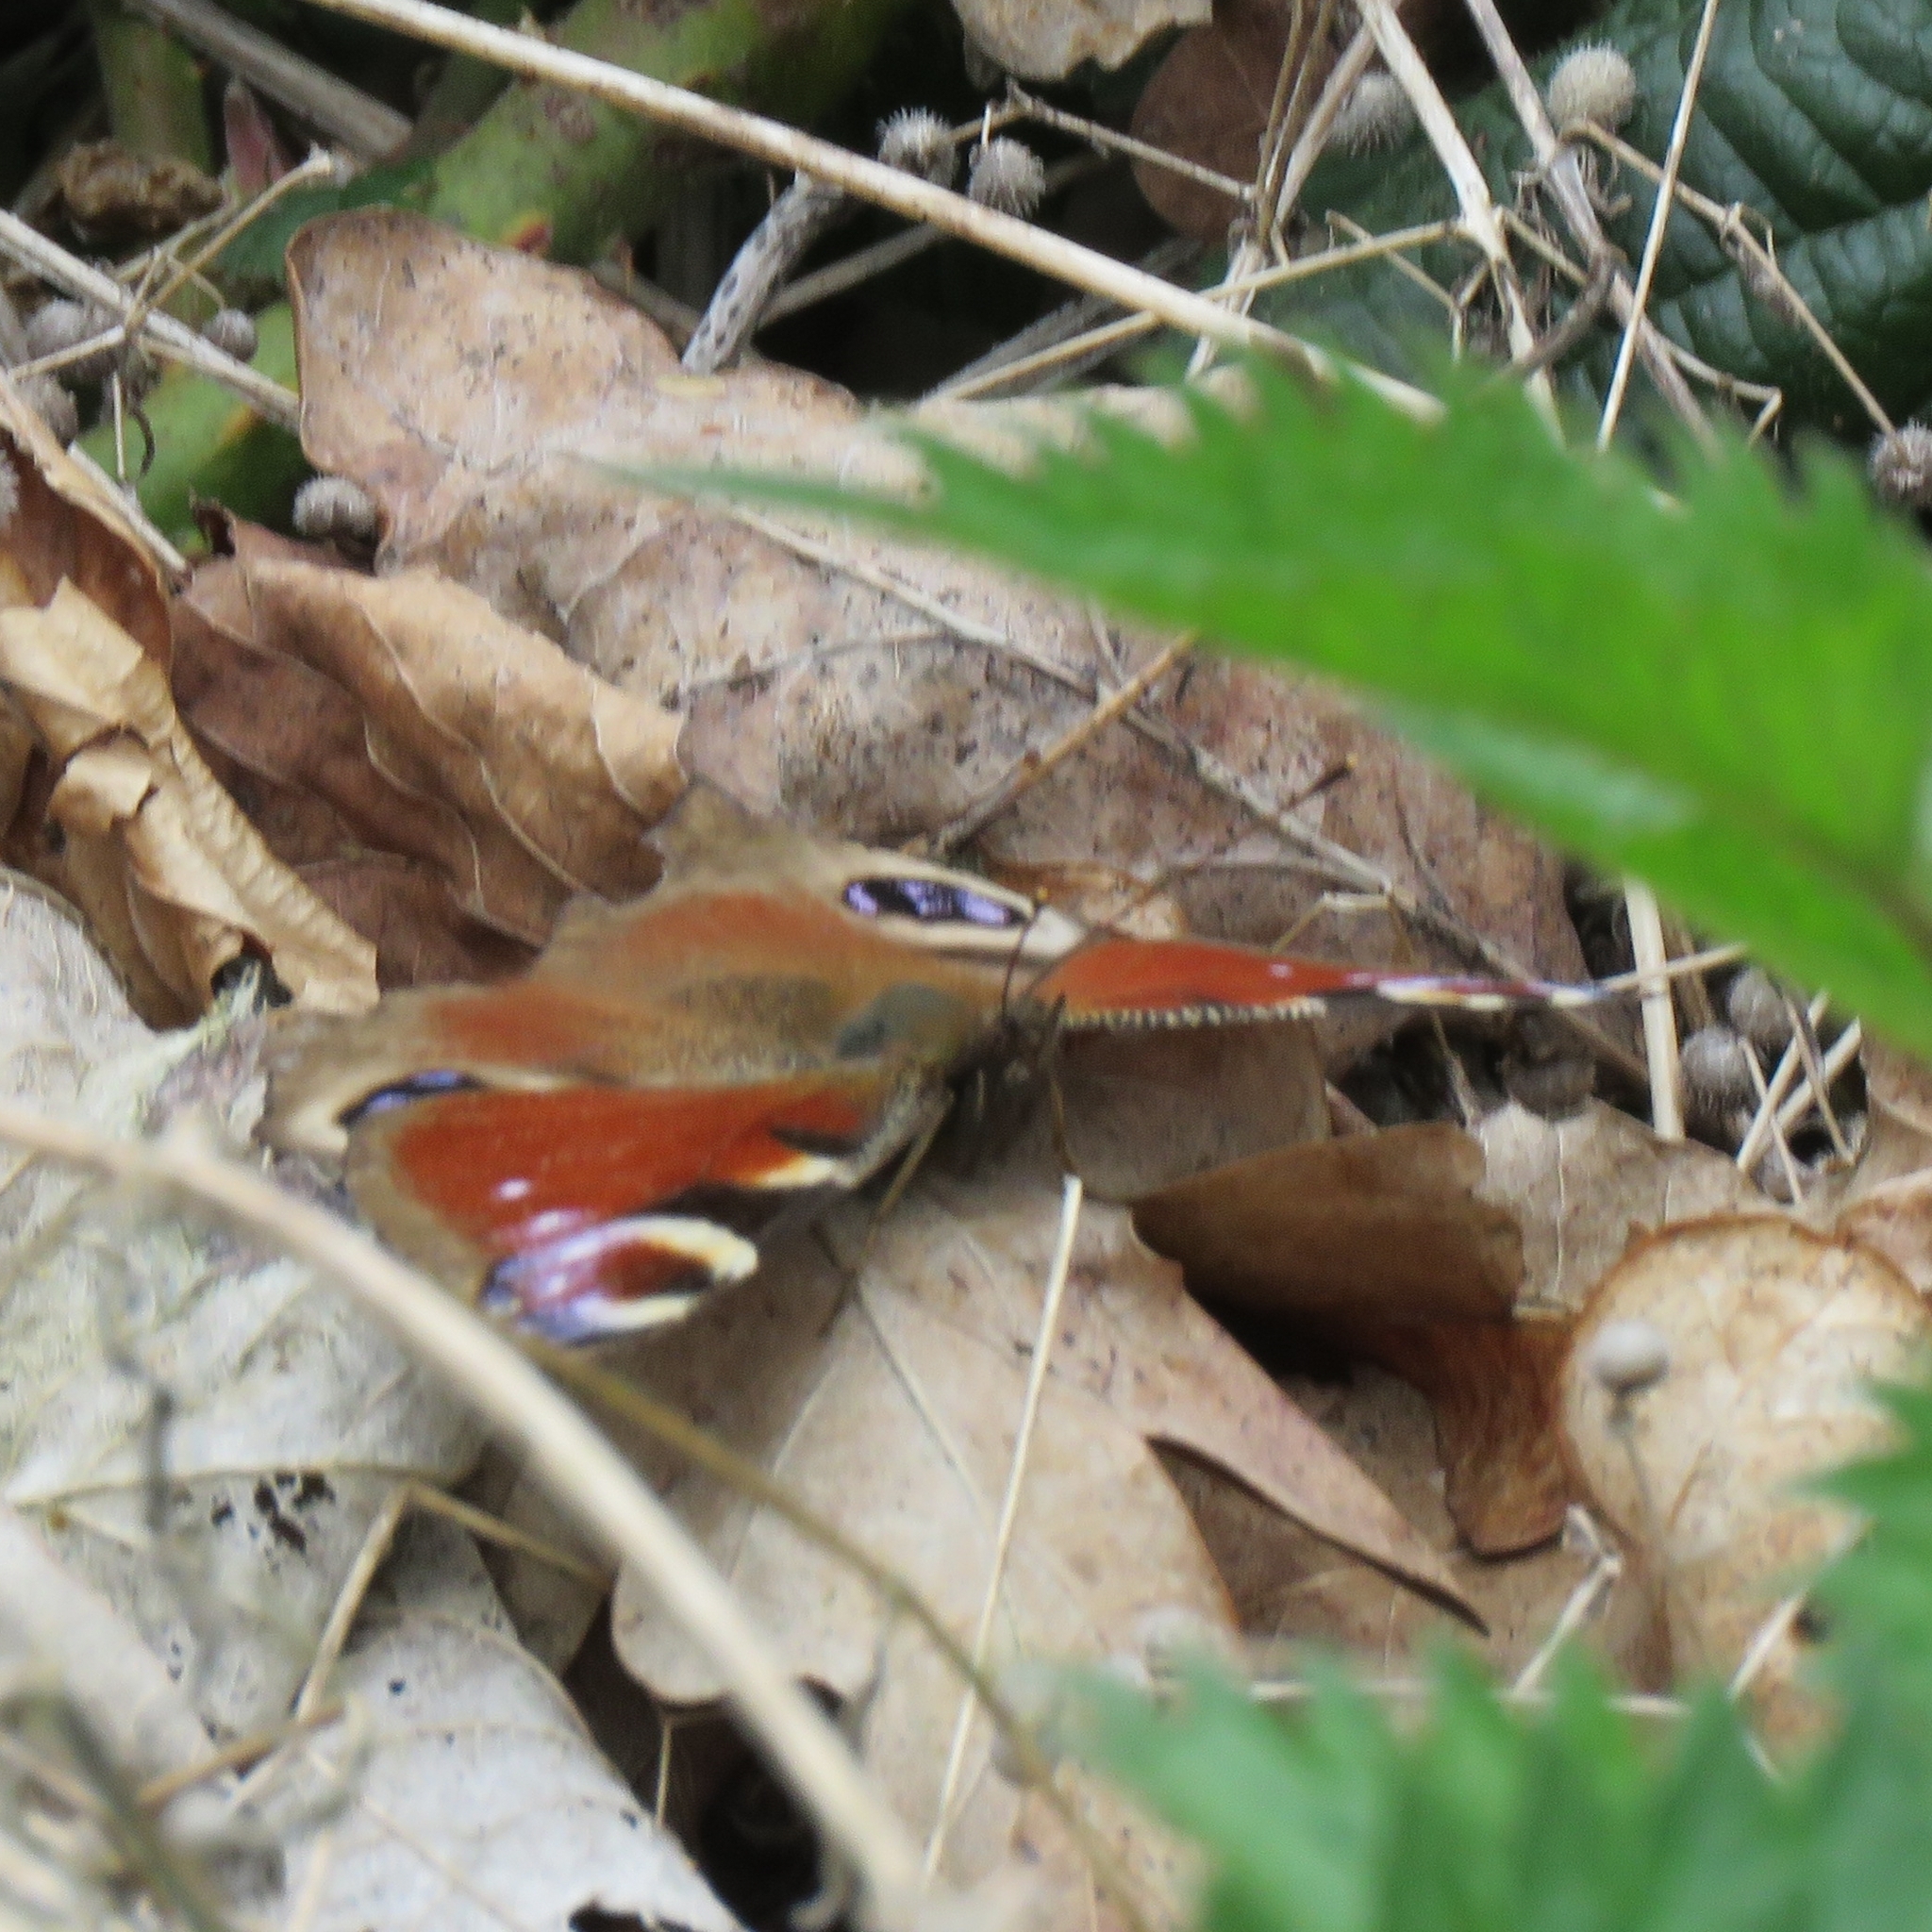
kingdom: Animalia
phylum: Arthropoda
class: Insecta
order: Lepidoptera
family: Nymphalidae
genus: Aglais
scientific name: Aglais io
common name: Peacock
